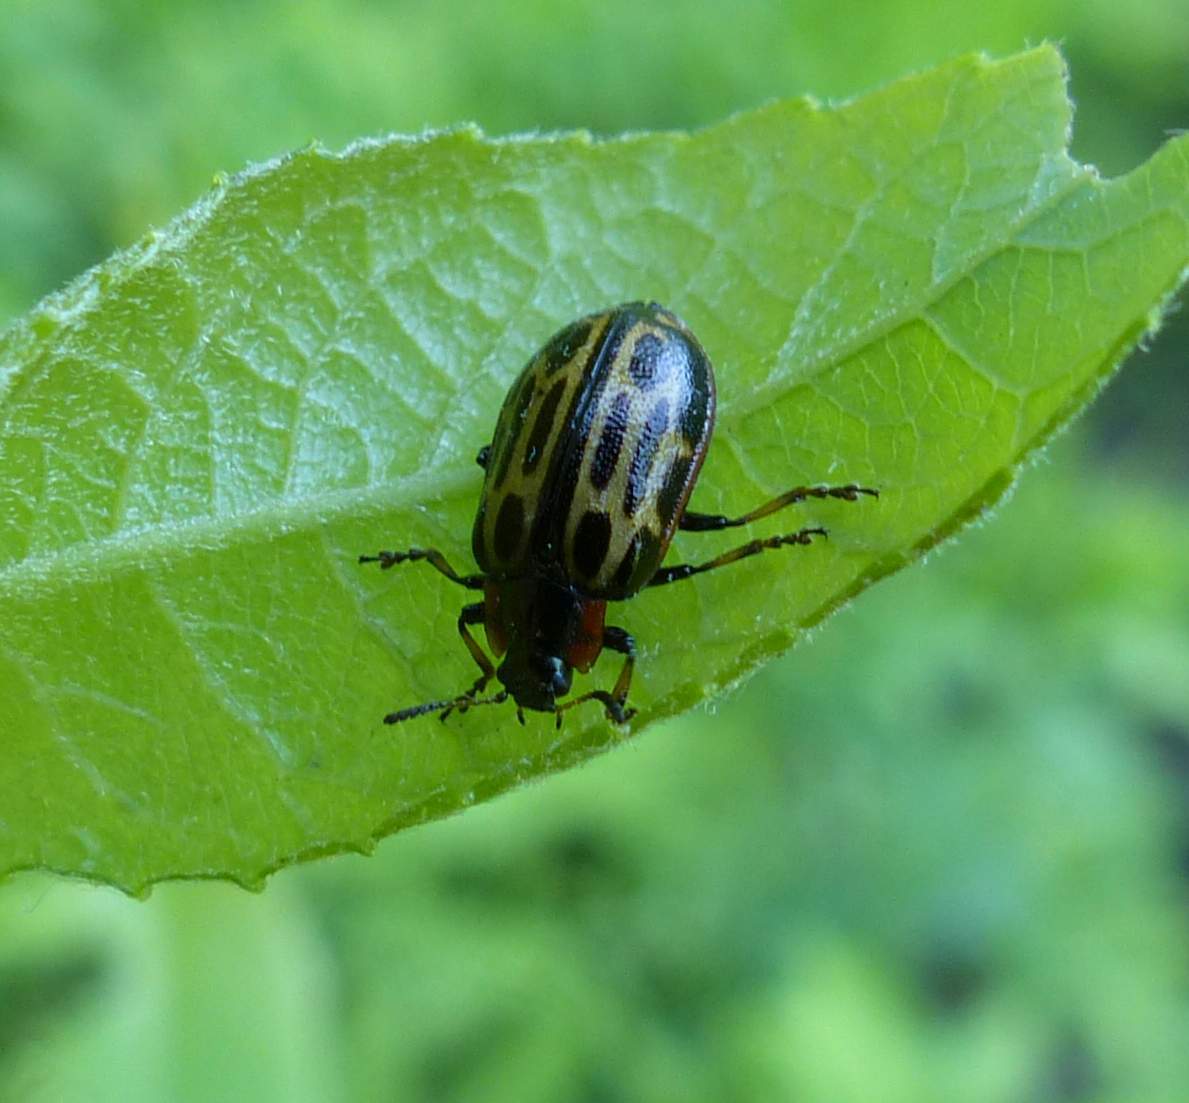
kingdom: Animalia
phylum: Arthropoda
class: Insecta
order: Coleoptera
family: Chrysomelidae
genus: Aethiopocassis
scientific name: Aethiopocassis scripta
